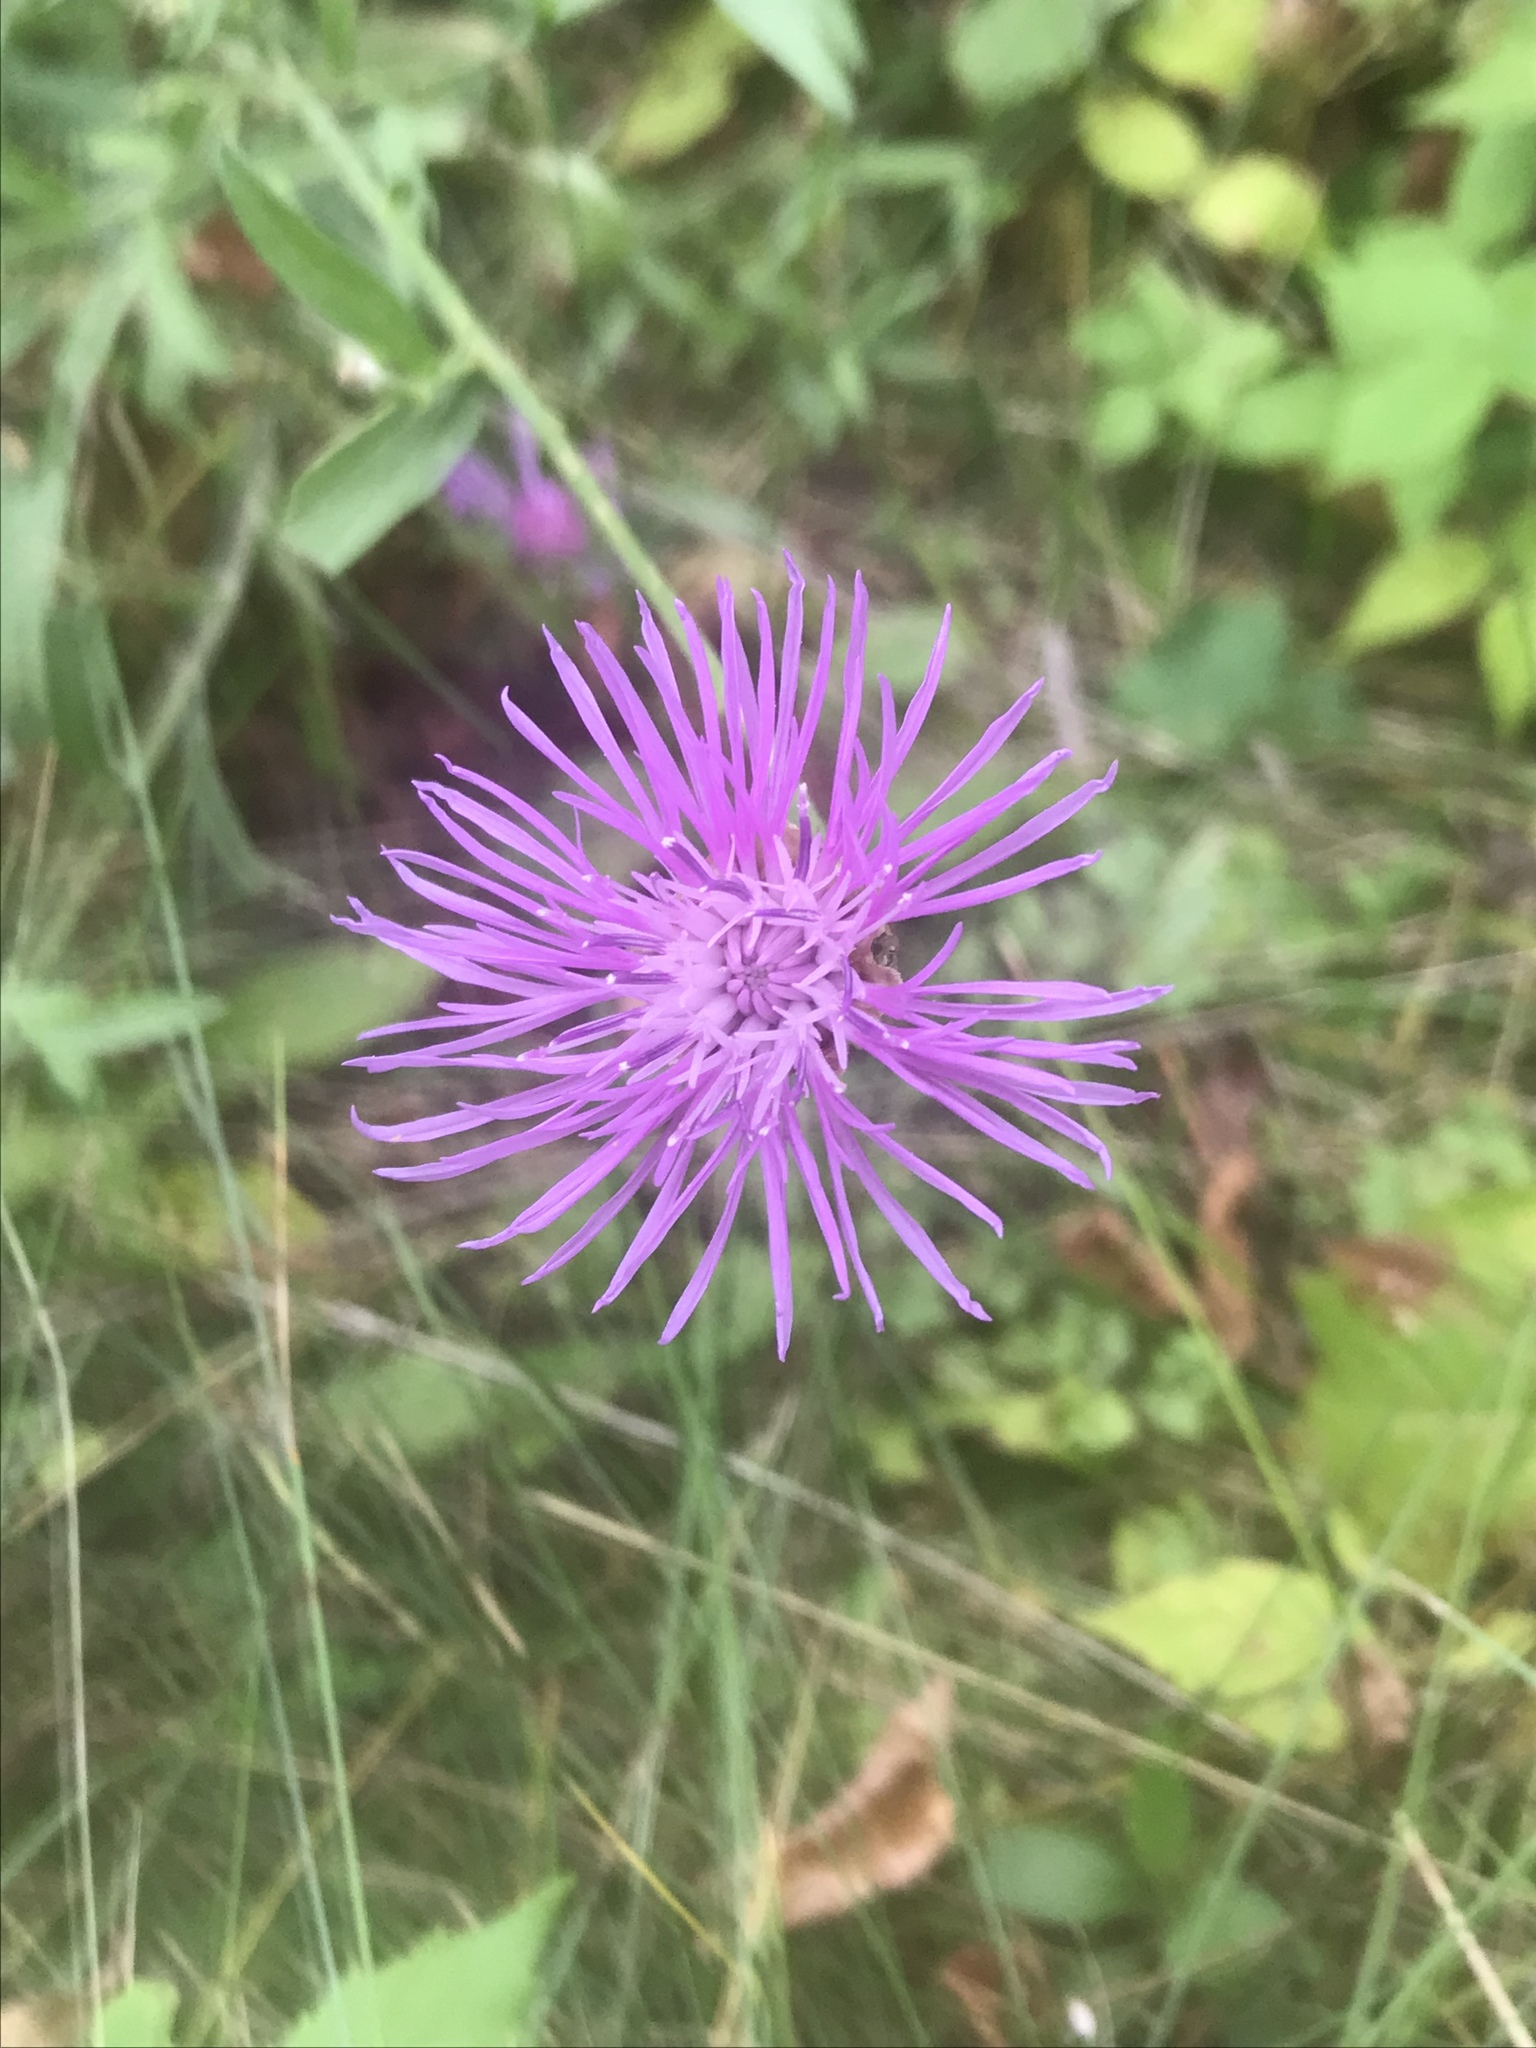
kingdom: Plantae
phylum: Tracheophyta
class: Magnoliopsida
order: Asterales
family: Asteraceae
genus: Centaurea
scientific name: Centaurea moncktonii
